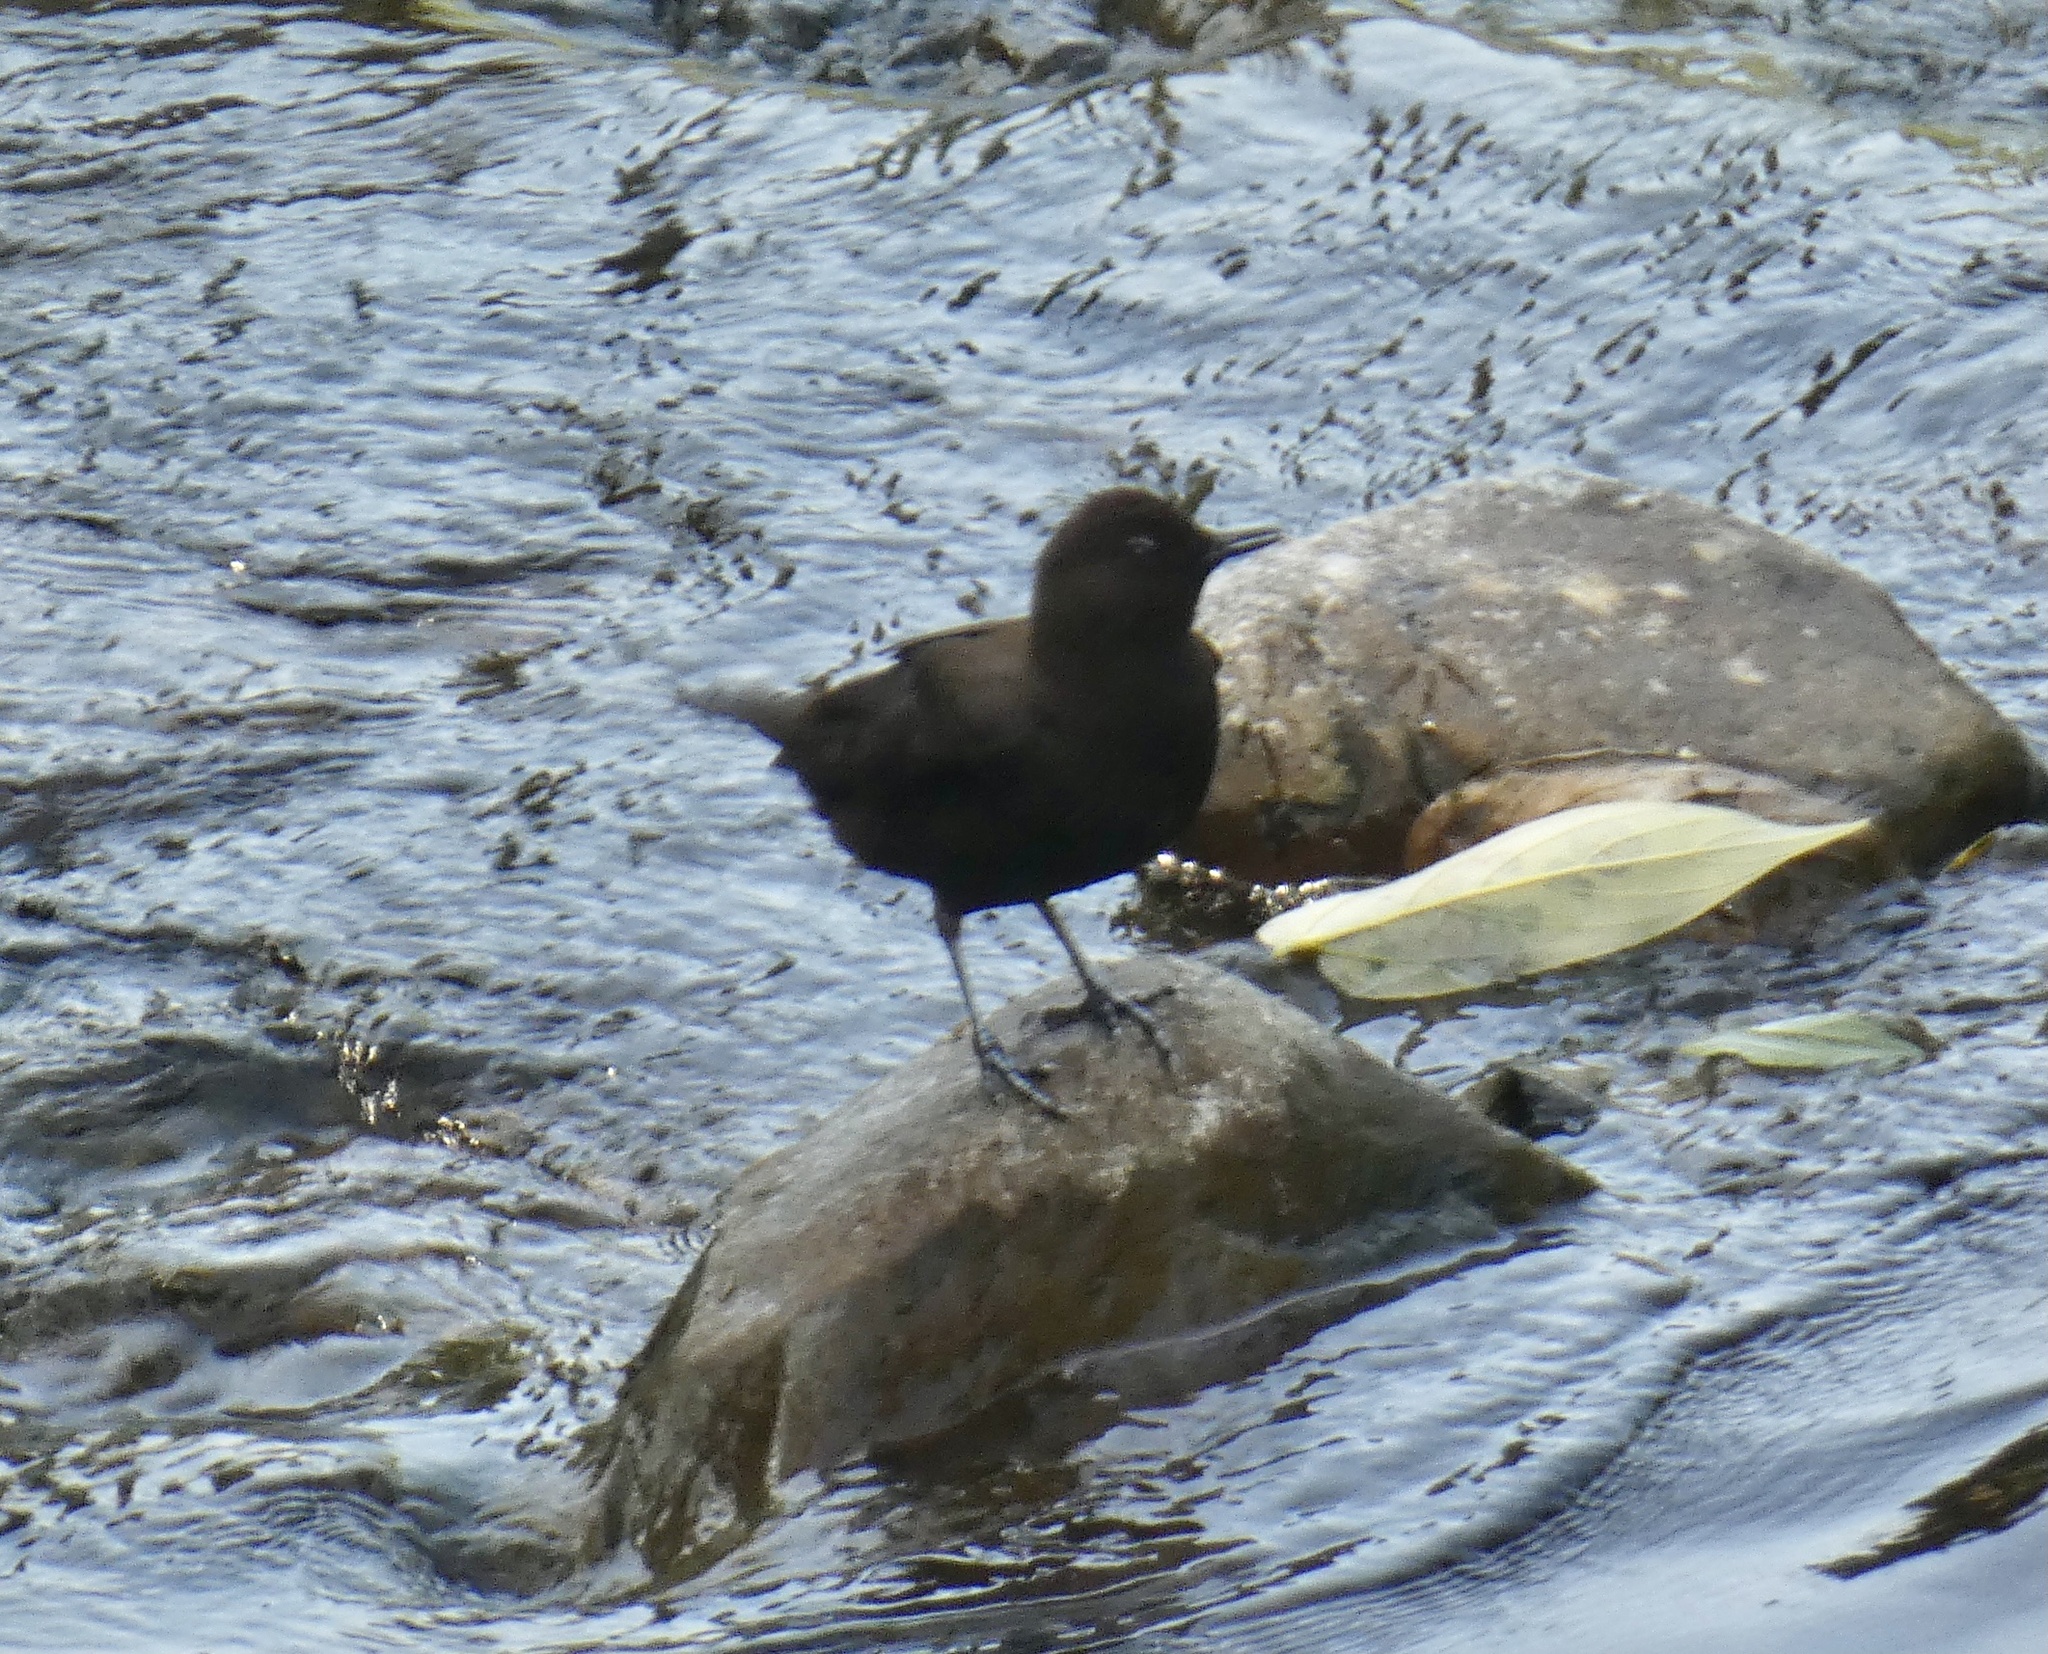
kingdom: Animalia
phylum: Chordata
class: Aves
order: Passeriformes
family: Cinclidae
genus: Cinclus
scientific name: Cinclus pallasii
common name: Brown dipper
